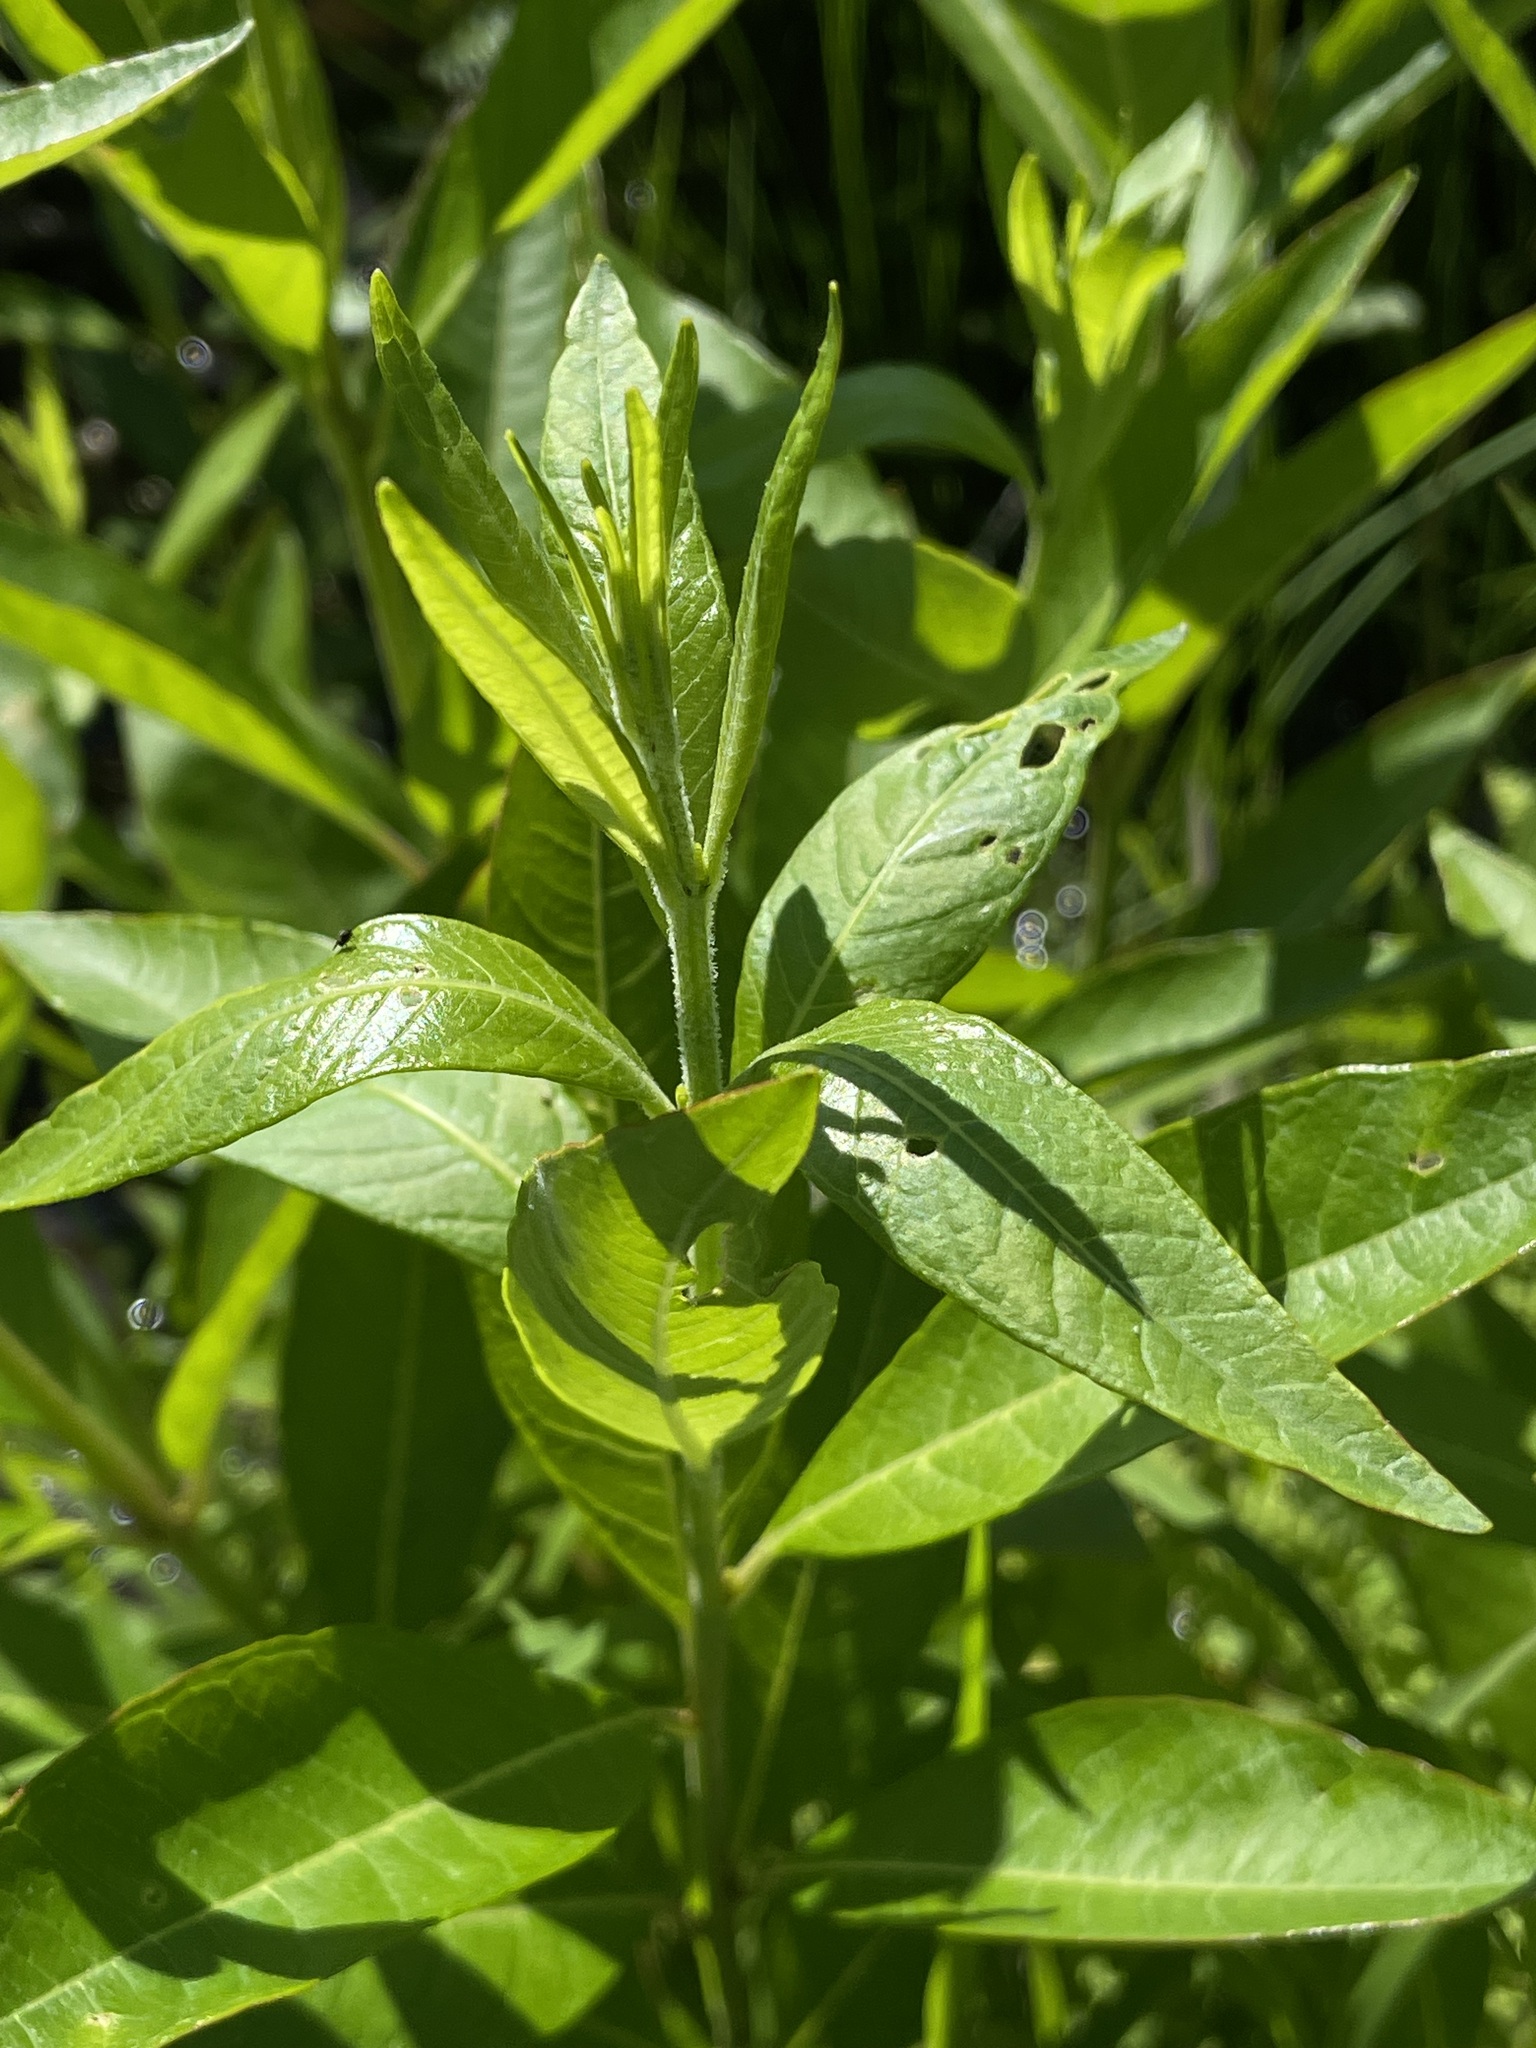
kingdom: Plantae
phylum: Tracheophyta
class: Magnoliopsida
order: Myrtales
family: Lythraceae
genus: Decodon
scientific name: Decodon verticillatus
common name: Hairy swamp loosestrife
